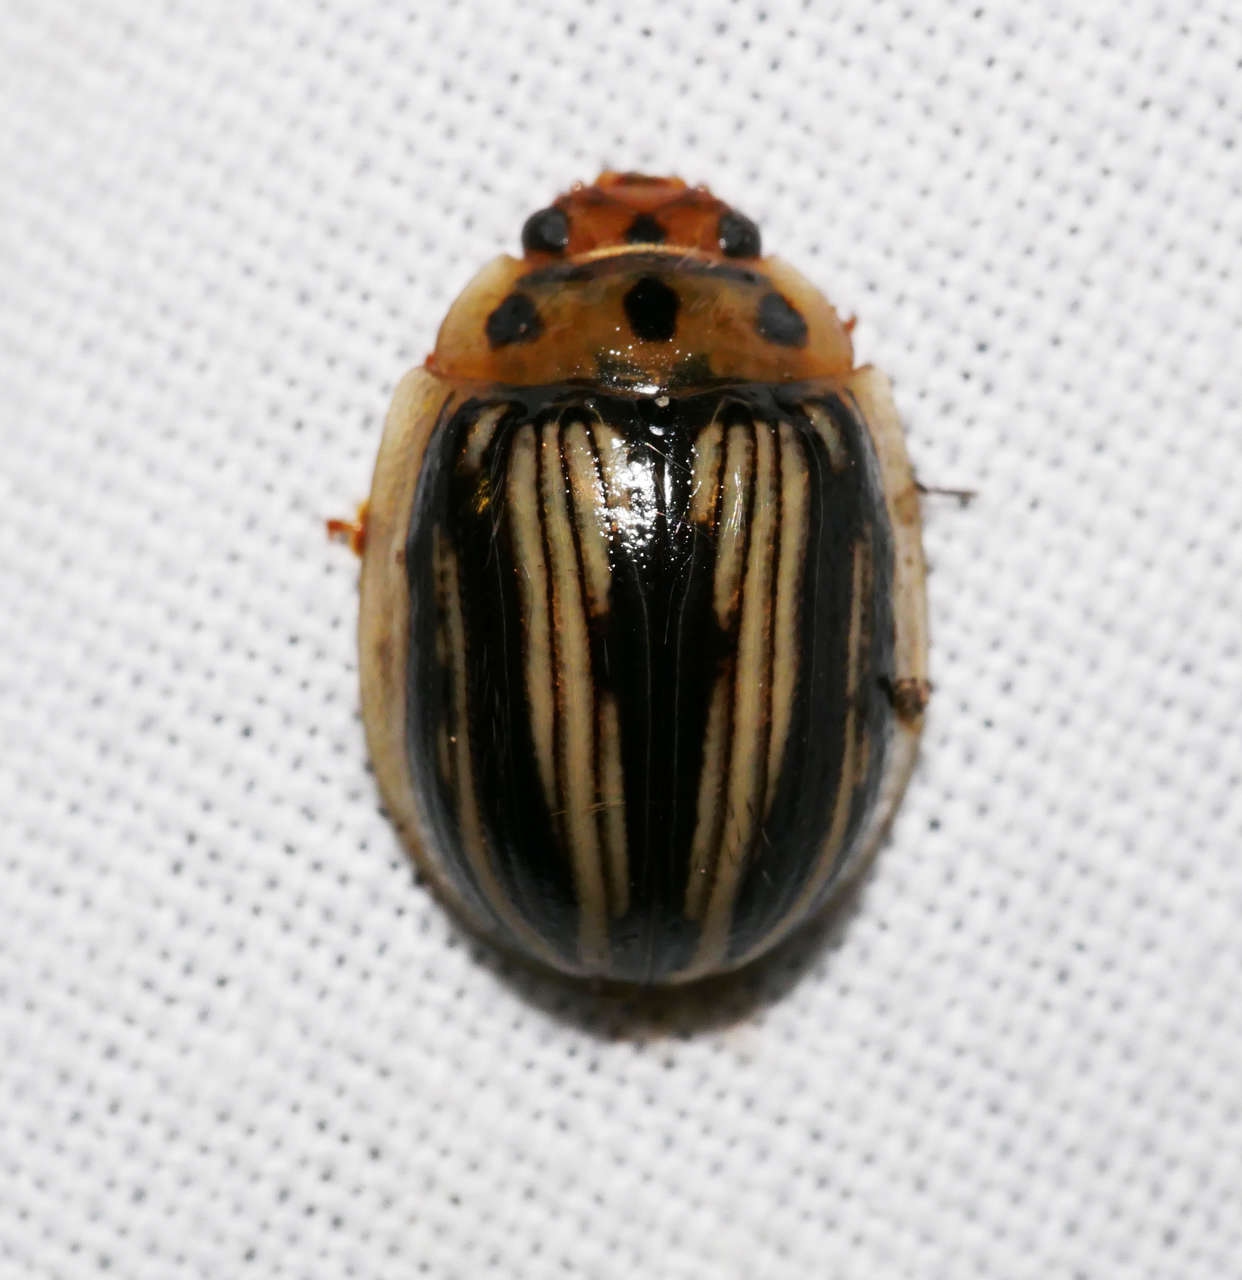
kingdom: Animalia
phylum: Arthropoda
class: Insecta
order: Coleoptera
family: Chrysomelidae
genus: Paropsisterna
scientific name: Paropsisterna
